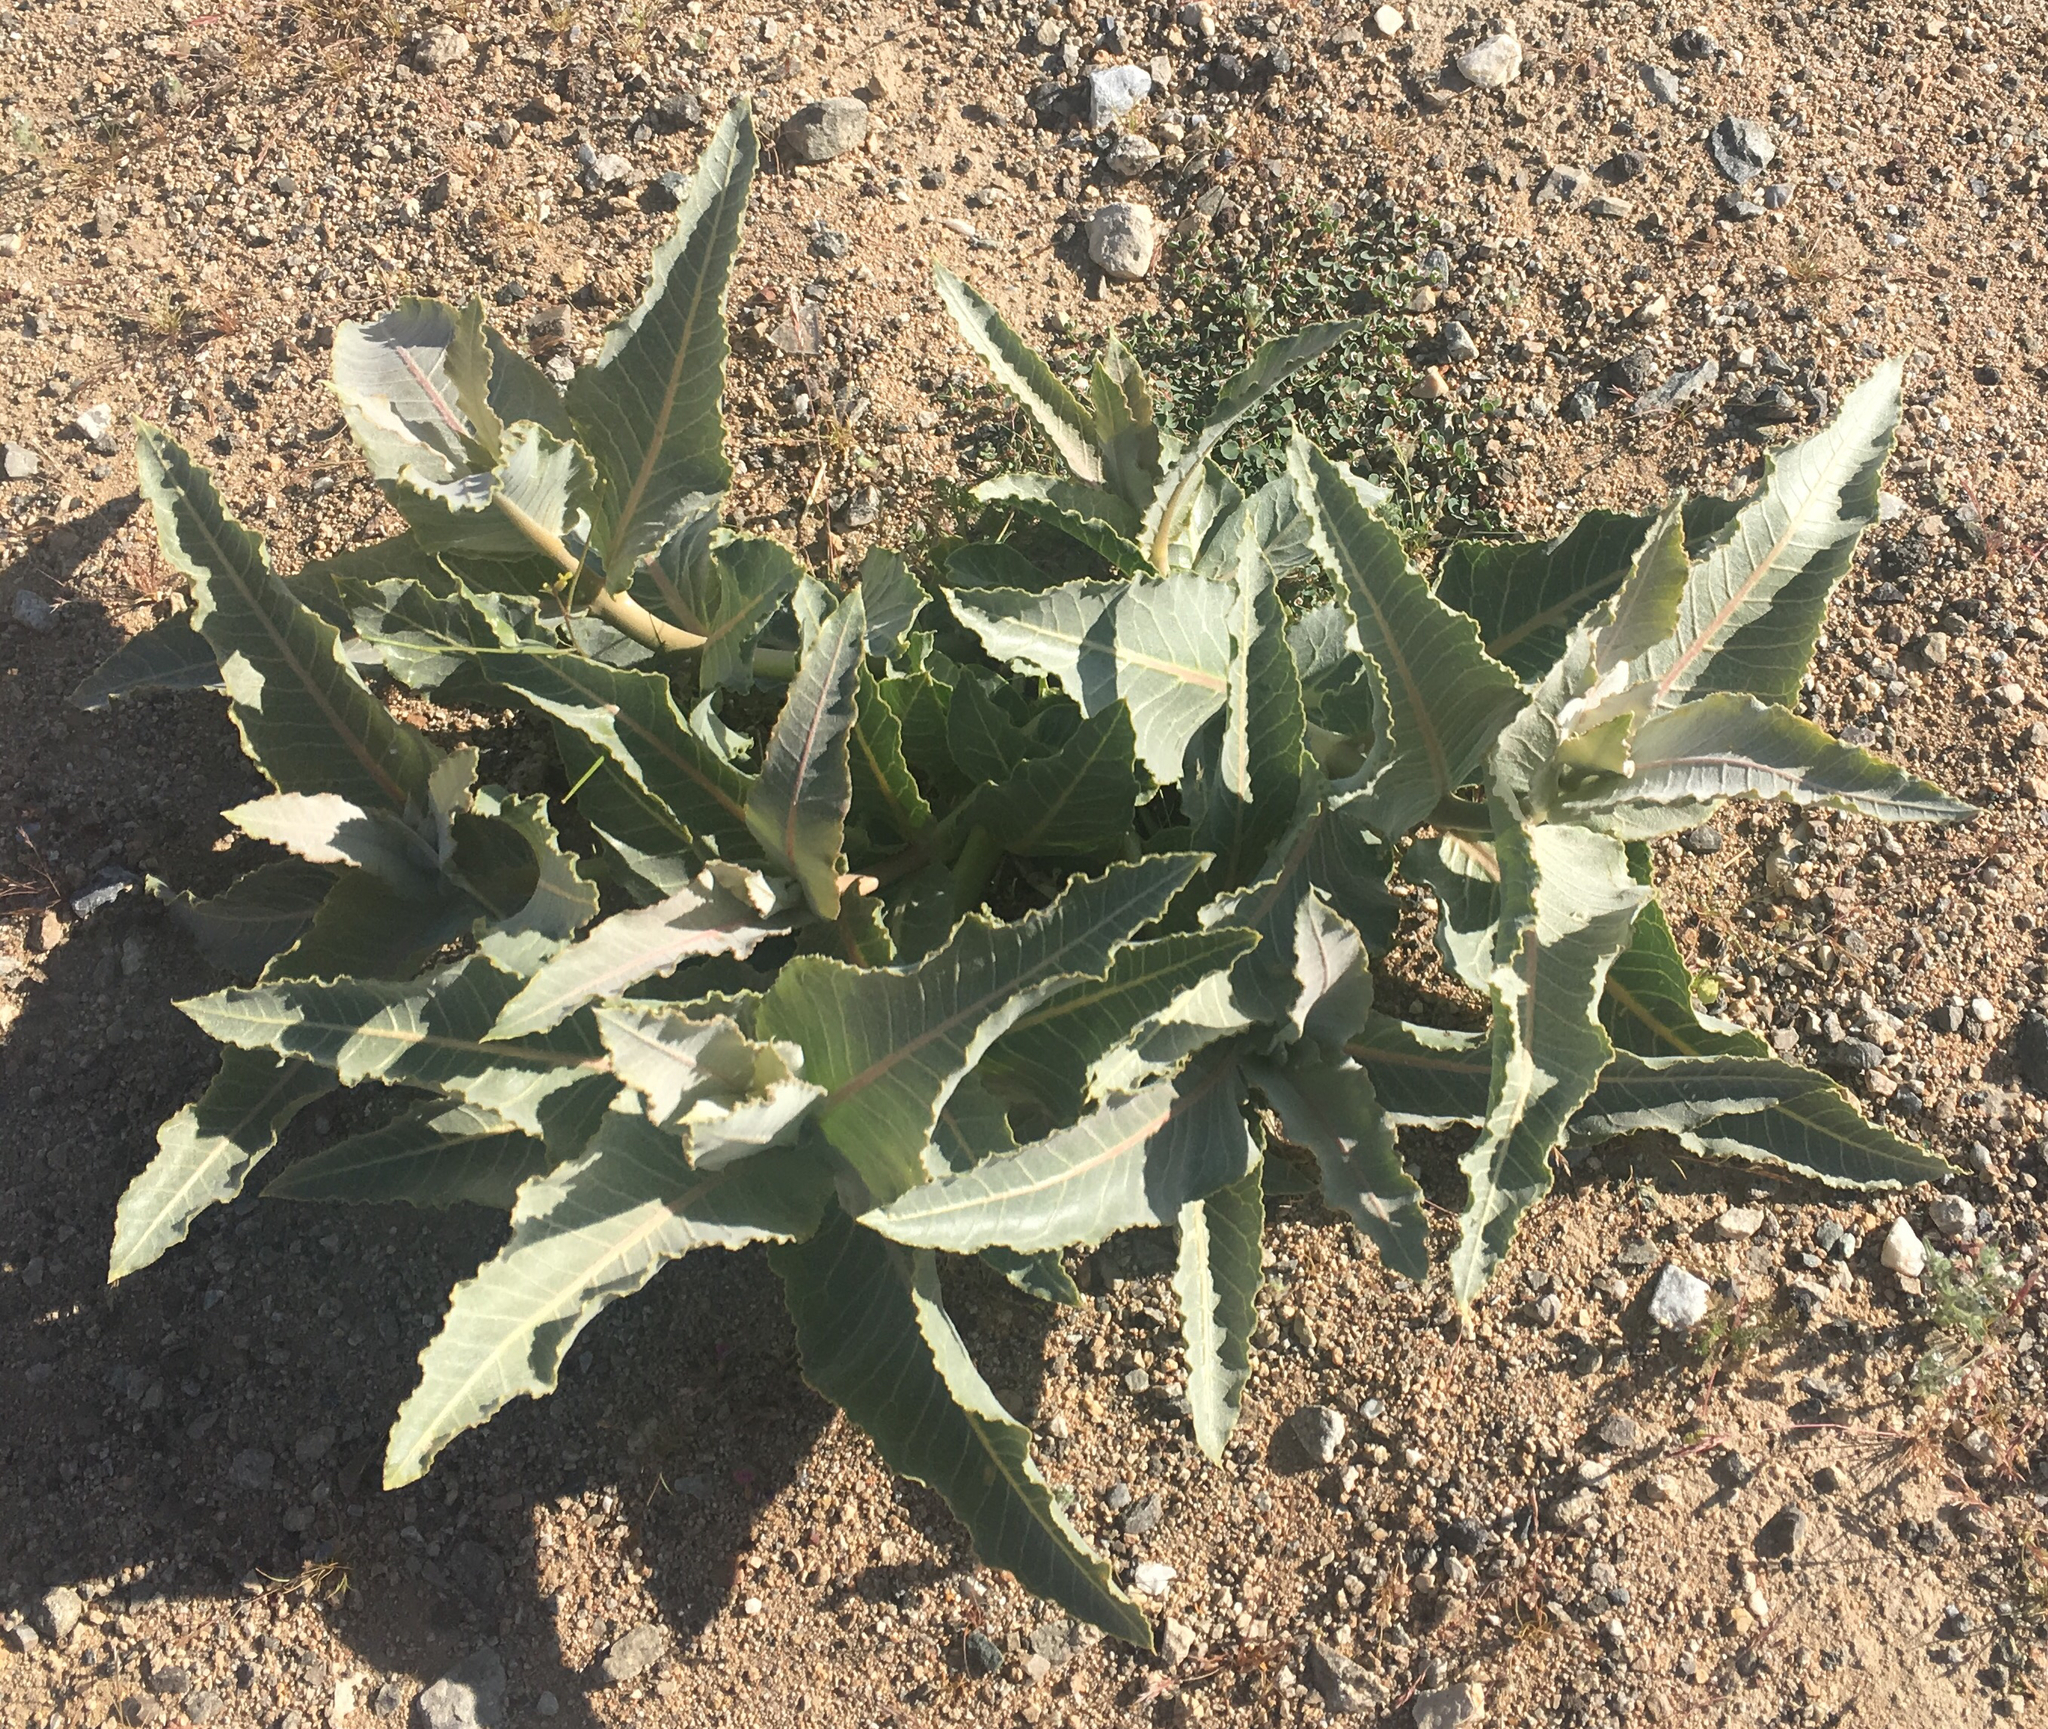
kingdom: Plantae
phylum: Tracheophyta
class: Magnoliopsida
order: Gentianales
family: Apocynaceae
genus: Asclepias
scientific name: Asclepias erosa
